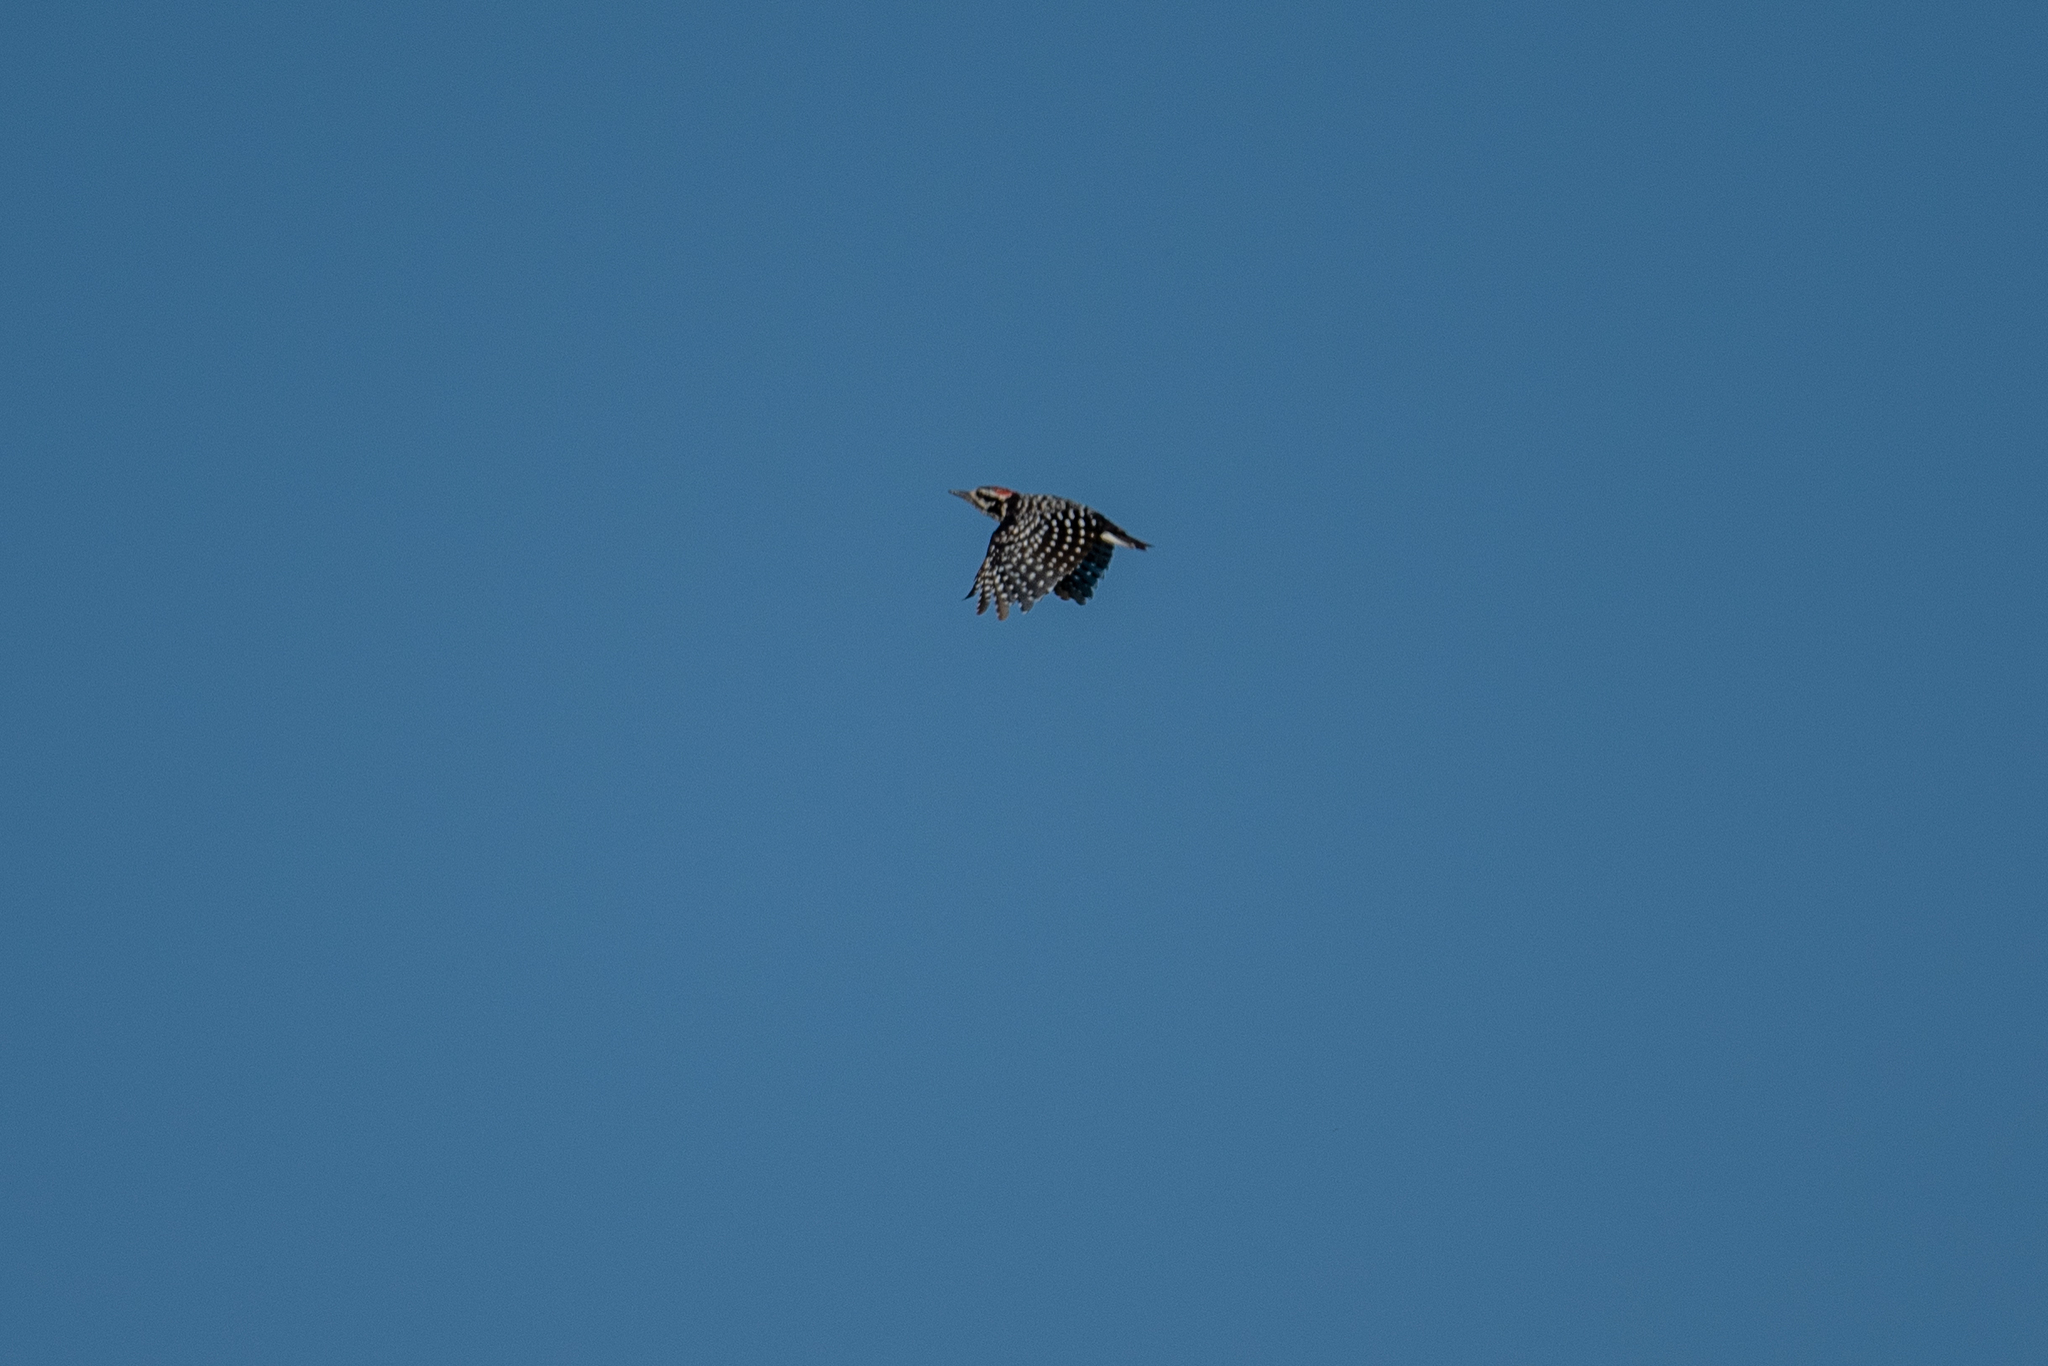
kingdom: Animalia
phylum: Chordata
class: Aves
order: Piciformes
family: Picidae
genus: Dryobates
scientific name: Dryobates nuttallii
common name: Nuttall's woodpecker
